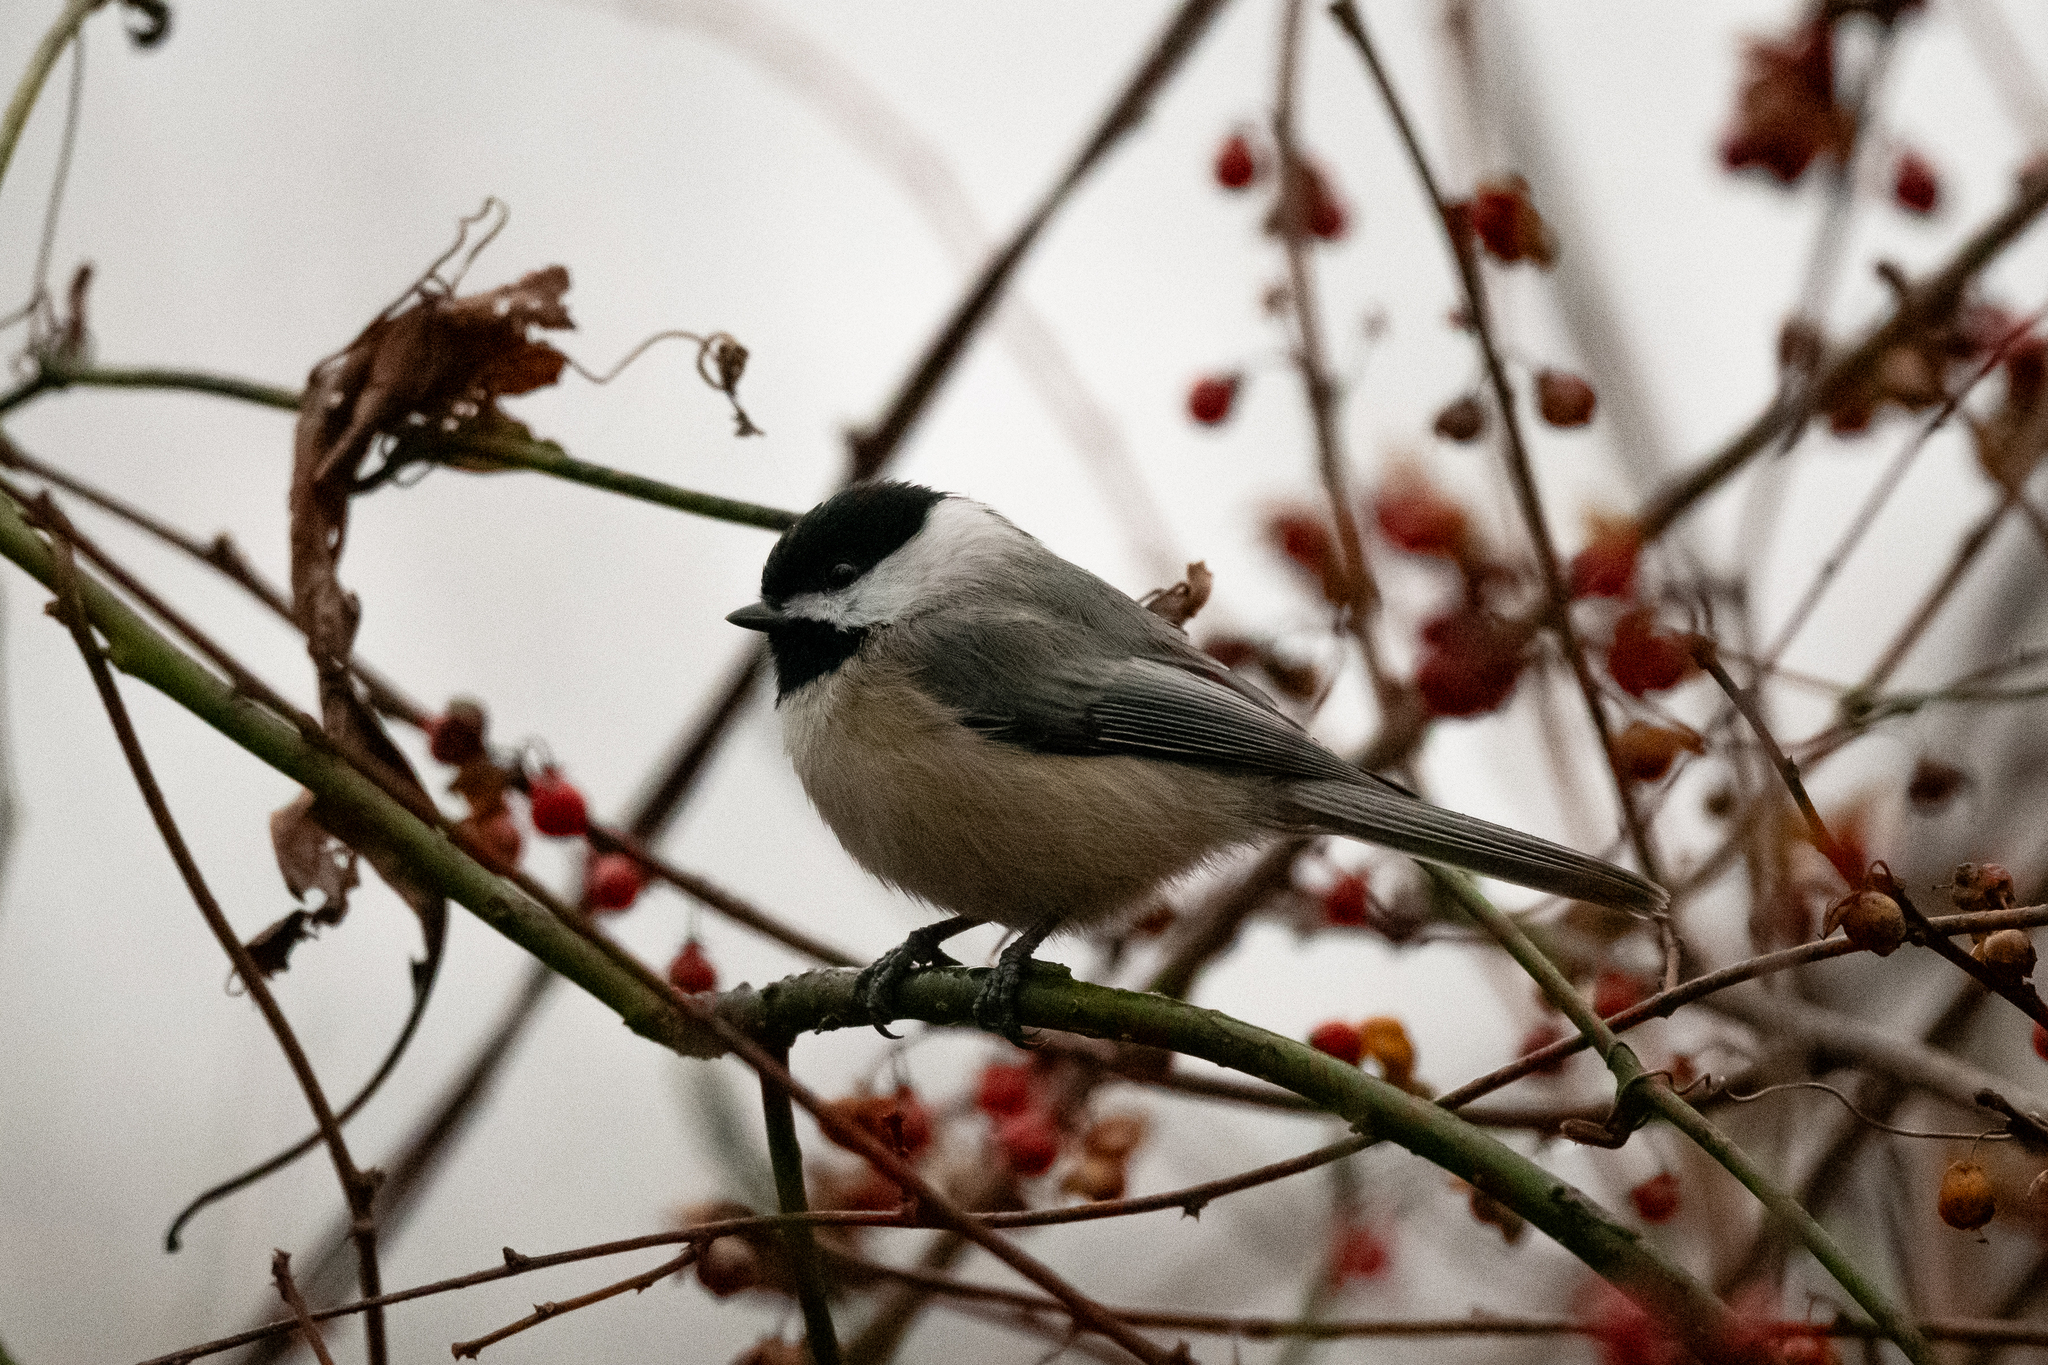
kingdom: Animalia
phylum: Chordata
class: Aves
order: Passeriformes
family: Paridae
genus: Poecile
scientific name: Poecile carolinensis
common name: Carolina chickadee
